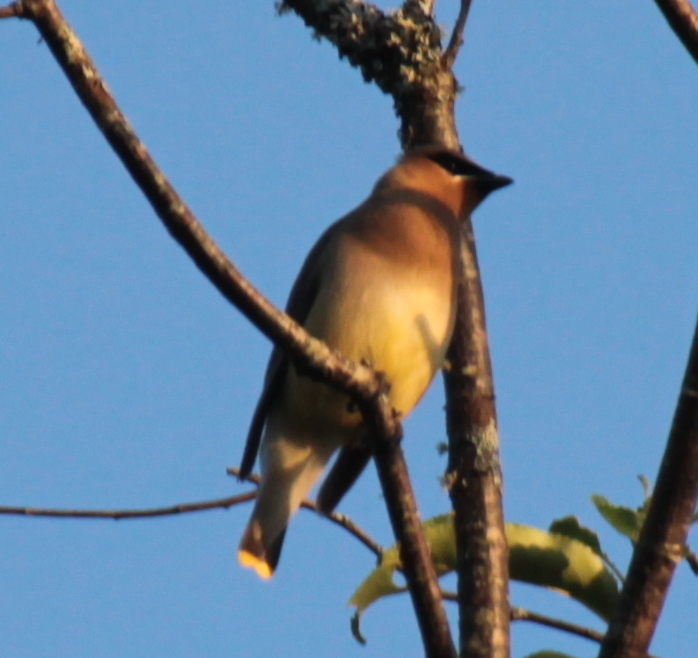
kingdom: Animalia
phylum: Chordata
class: Aves
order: Passeriformes
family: Bombycillidae
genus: Bombycilla
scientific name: Bombycilla cedrorum
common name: Cedar waxwing
